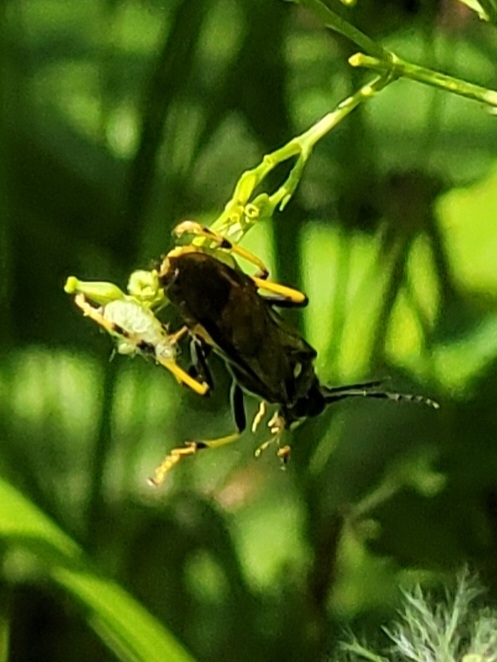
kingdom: Animalia
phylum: Arthropoda
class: Insecta
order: Hymenoptera
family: Tenthredinidae
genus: Tenthredo
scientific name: Tenthredo maculata
